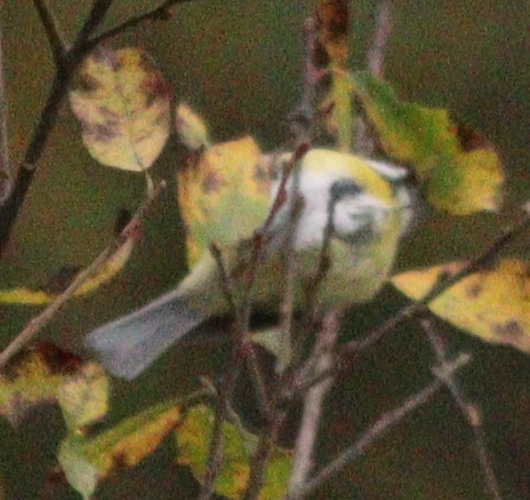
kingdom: Animalia
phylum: Chordata
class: Aves
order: Passeriformes
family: Paridae
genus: Cyanistes
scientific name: Cyanistes caeruleus
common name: Eurasian blue tit
